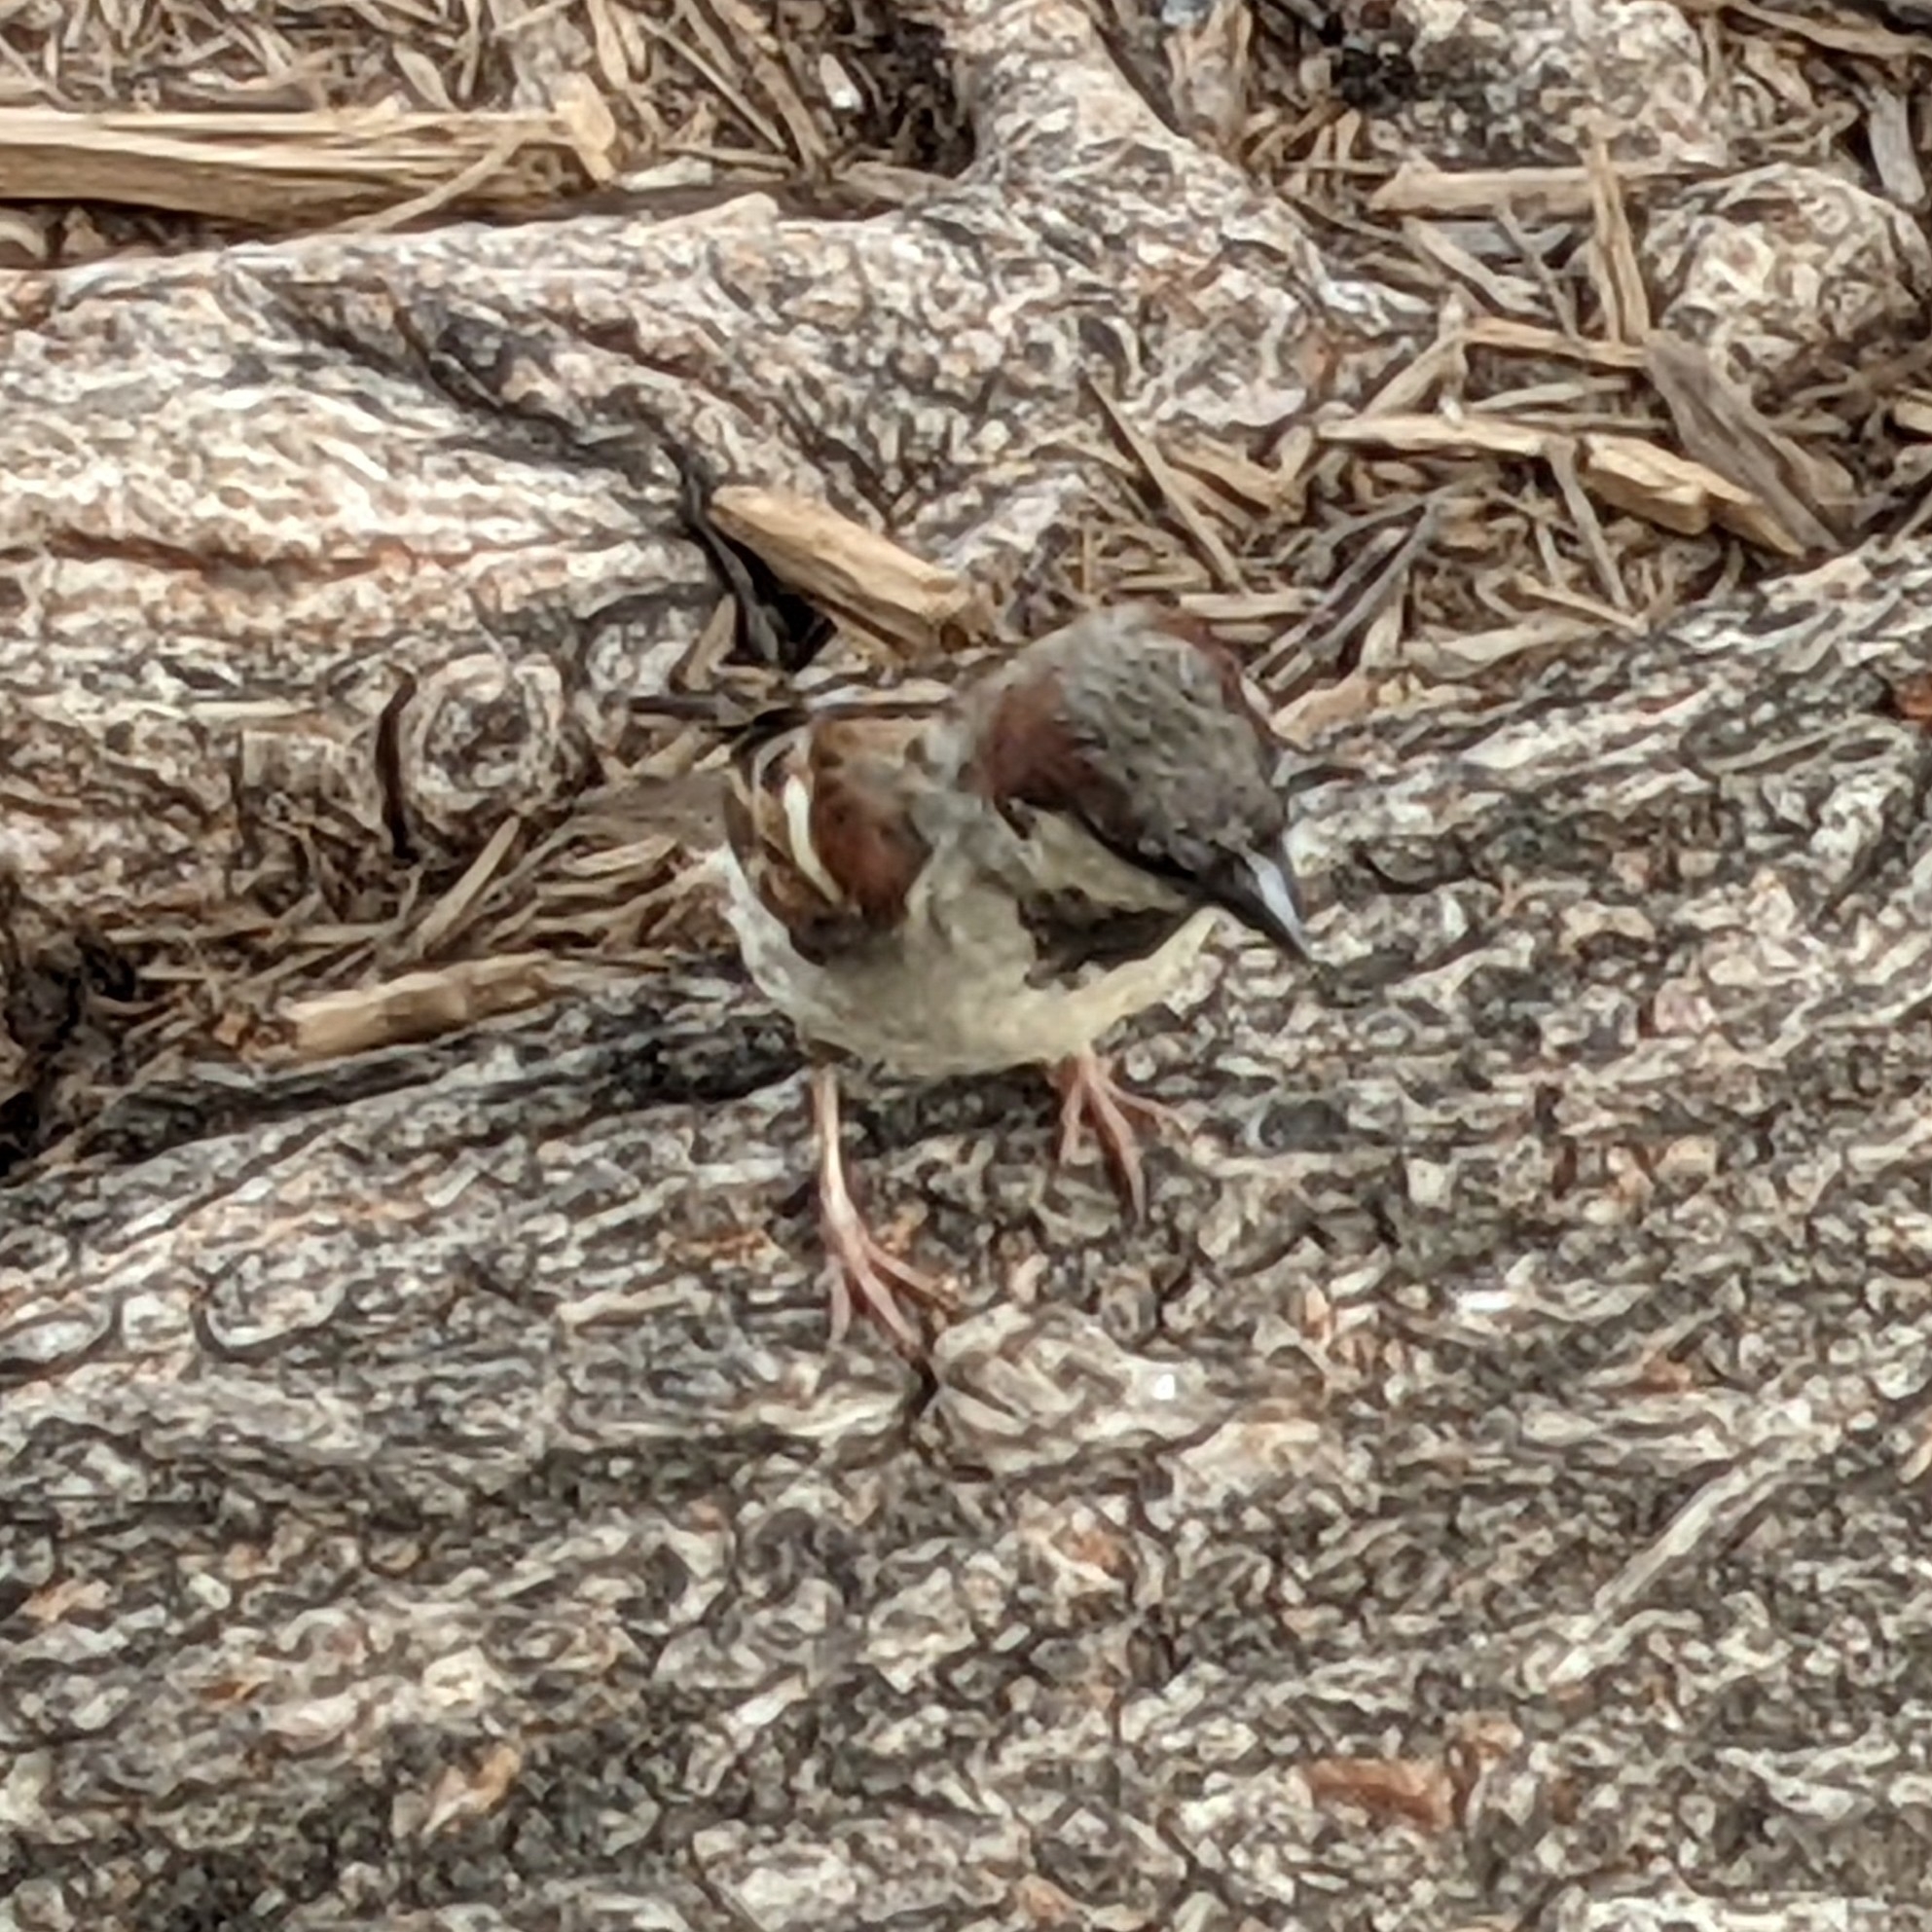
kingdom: Animalia
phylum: Chordata
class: Aves
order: Passeriformes
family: Passeridae
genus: Passer
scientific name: Passer domesticus
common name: House sparrow
